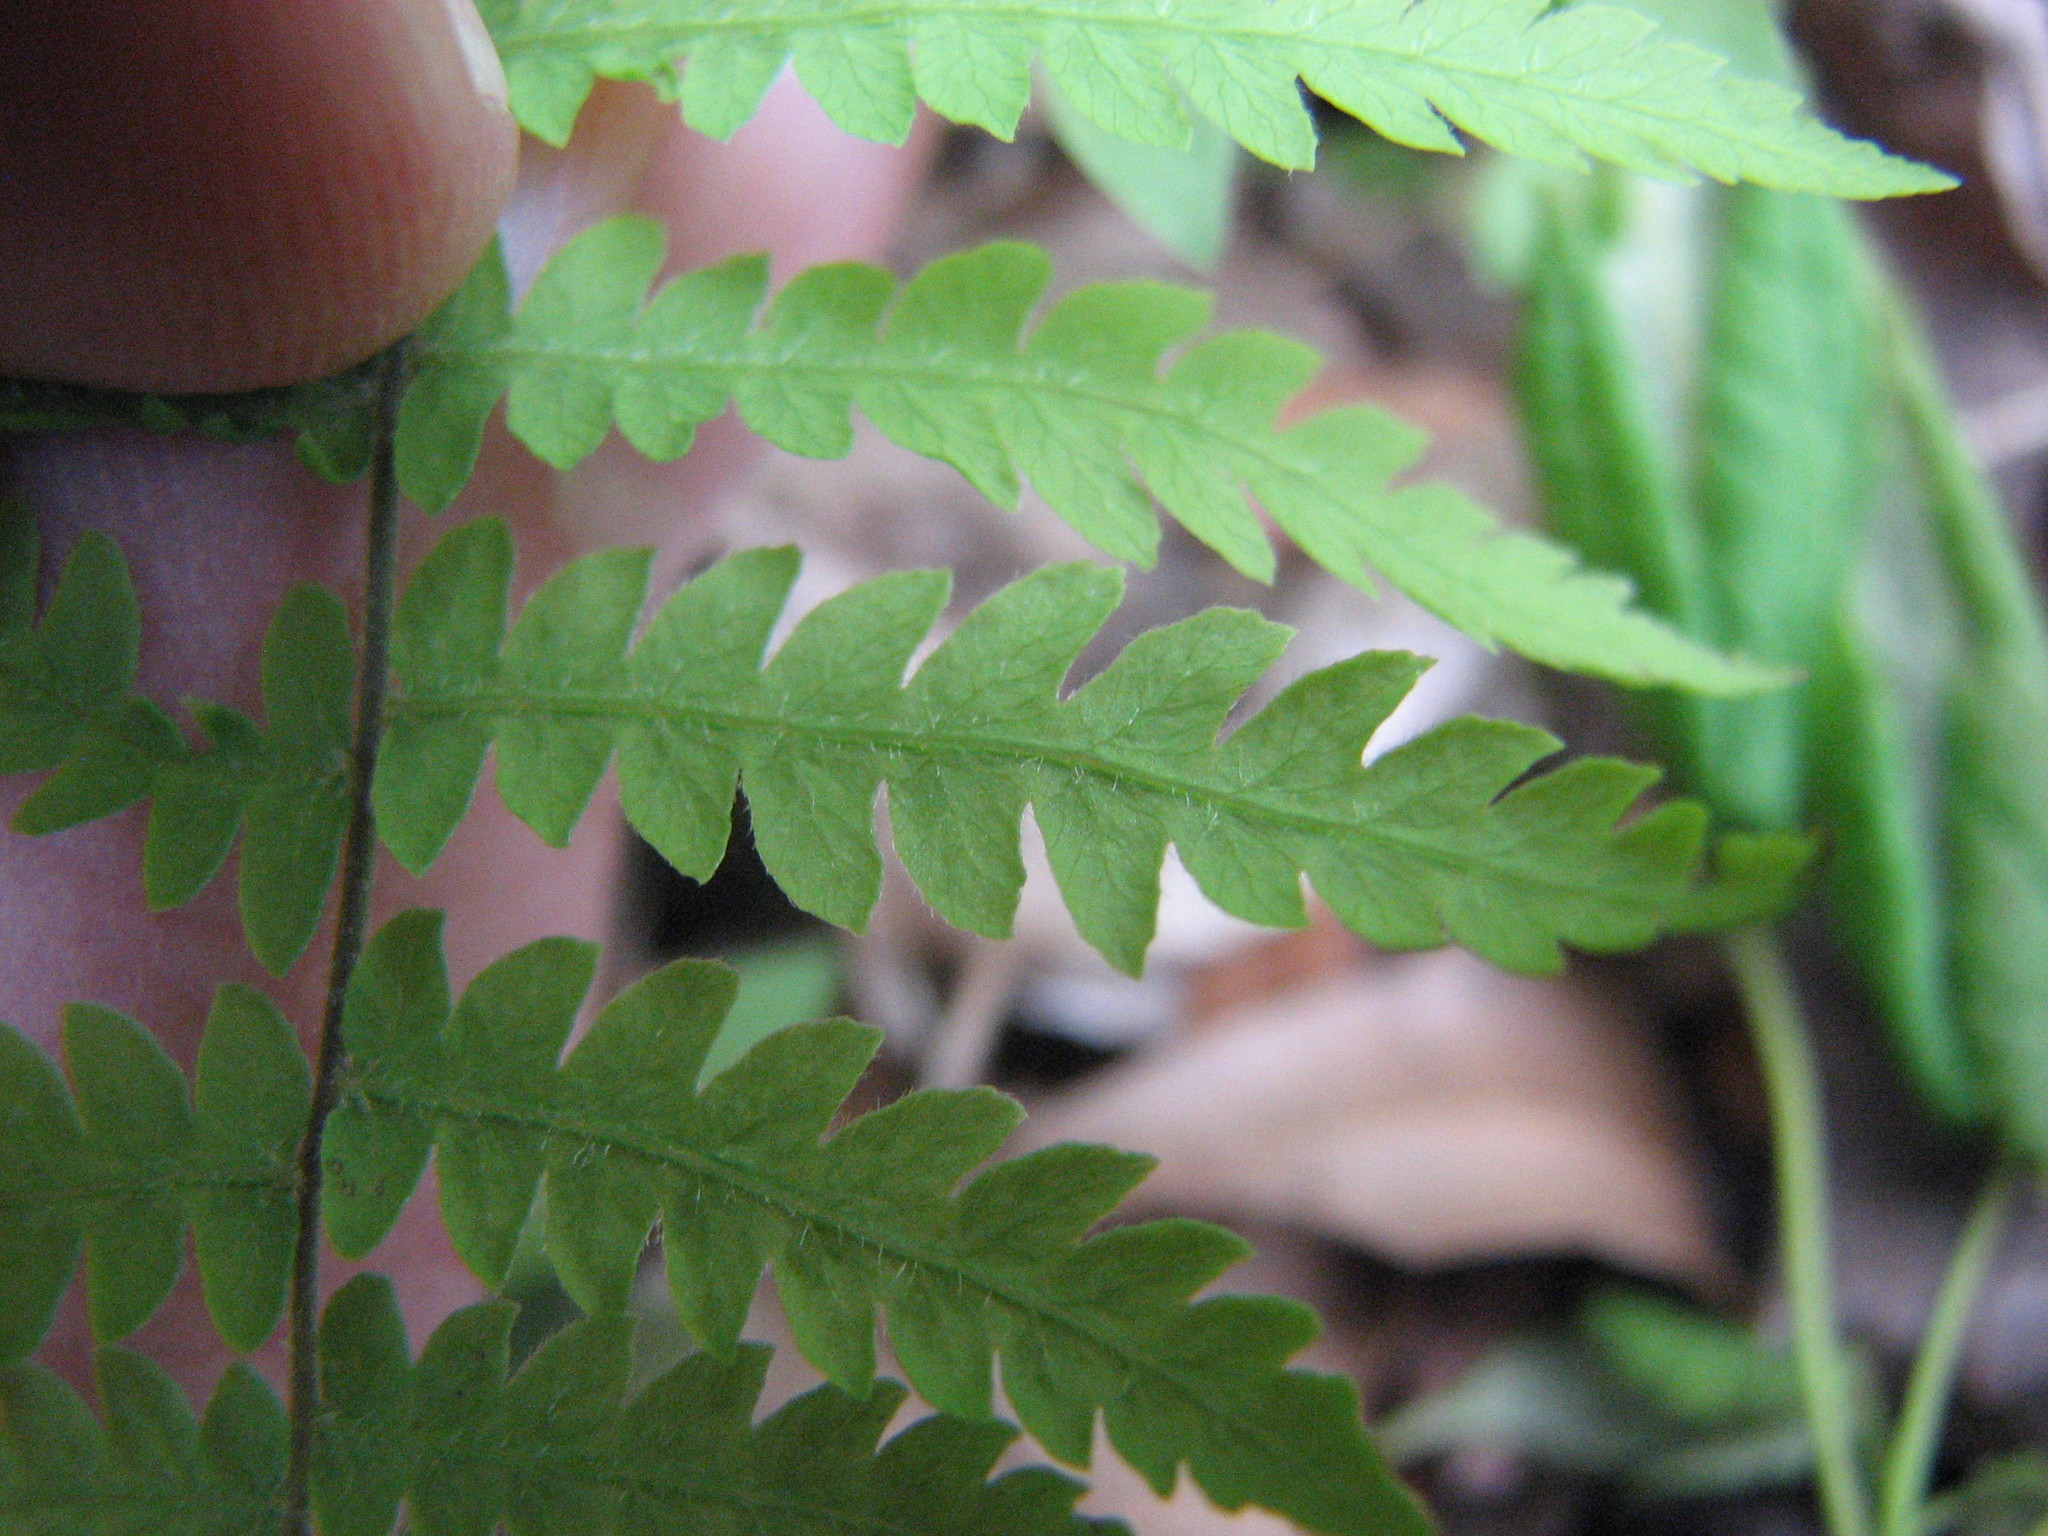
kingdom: Plantae
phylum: Tracheophyta
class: Polypodiopsida
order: Polypodiales
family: Thelypteridaceae
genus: Thelypteris
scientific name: Thelypteris palustris
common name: Marsh fern
